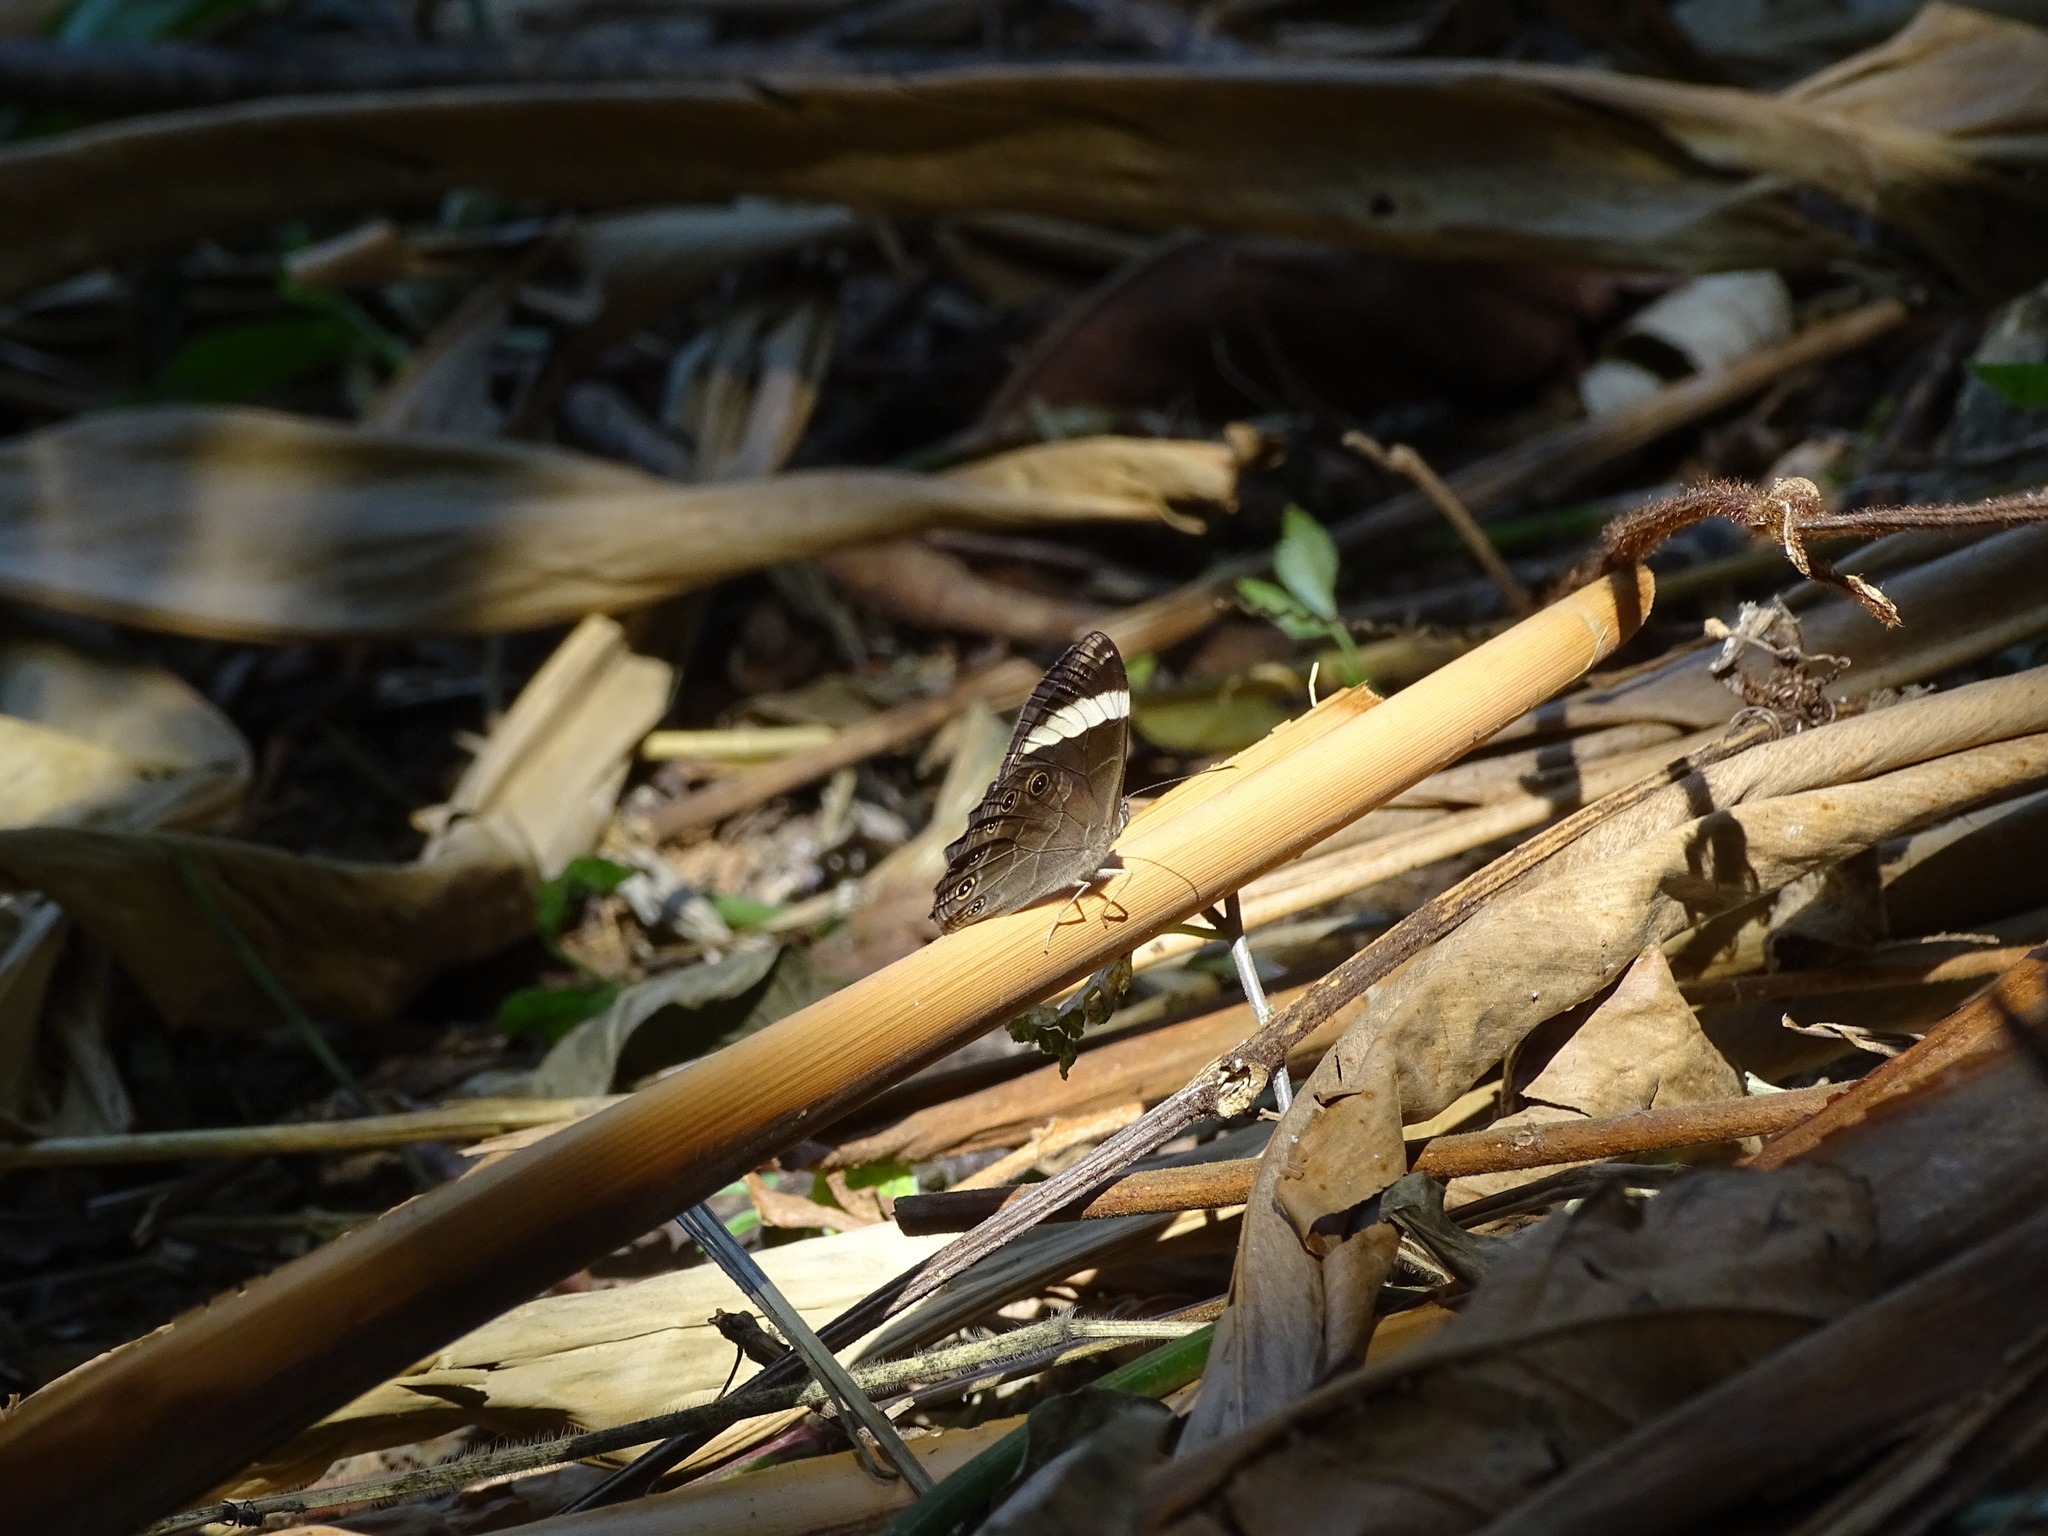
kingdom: Animalia
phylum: Arthropoda
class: Insecta
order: Lepidoptera
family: Nymphalidae
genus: Lethe
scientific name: Lethe verma
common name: Straight-banded treebrown
